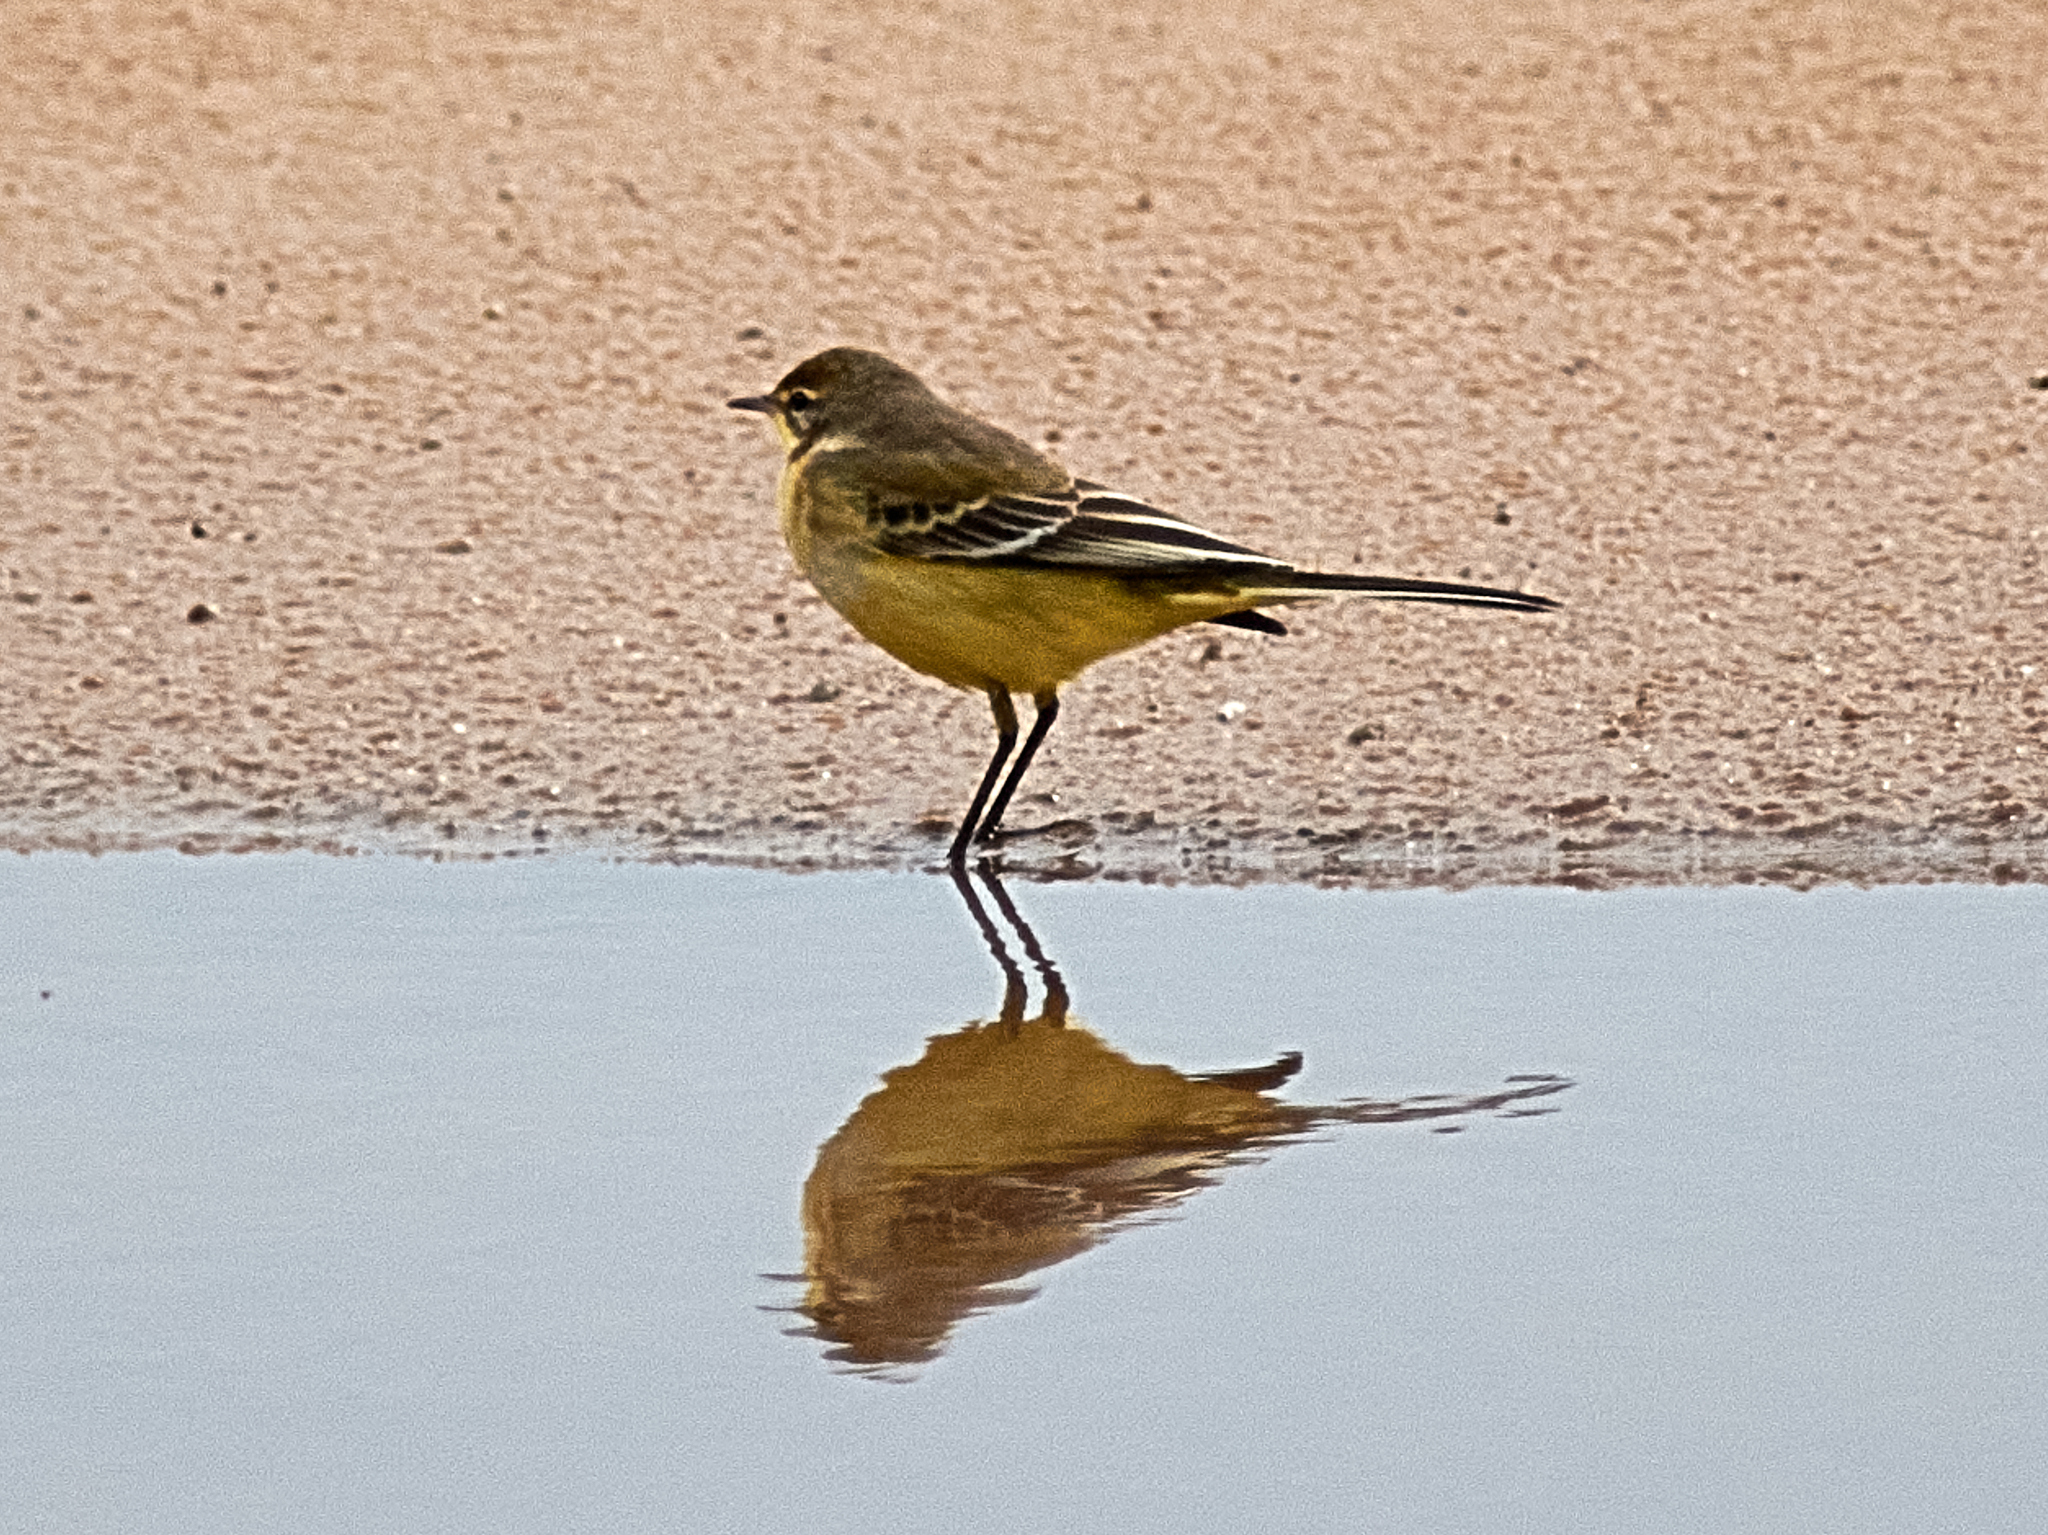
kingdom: Animalia
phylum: Chordata
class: Aves
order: Passeriformes
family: Motacillidae
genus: Motacilla
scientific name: Motacilla flava
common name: Western yellow wagtail
